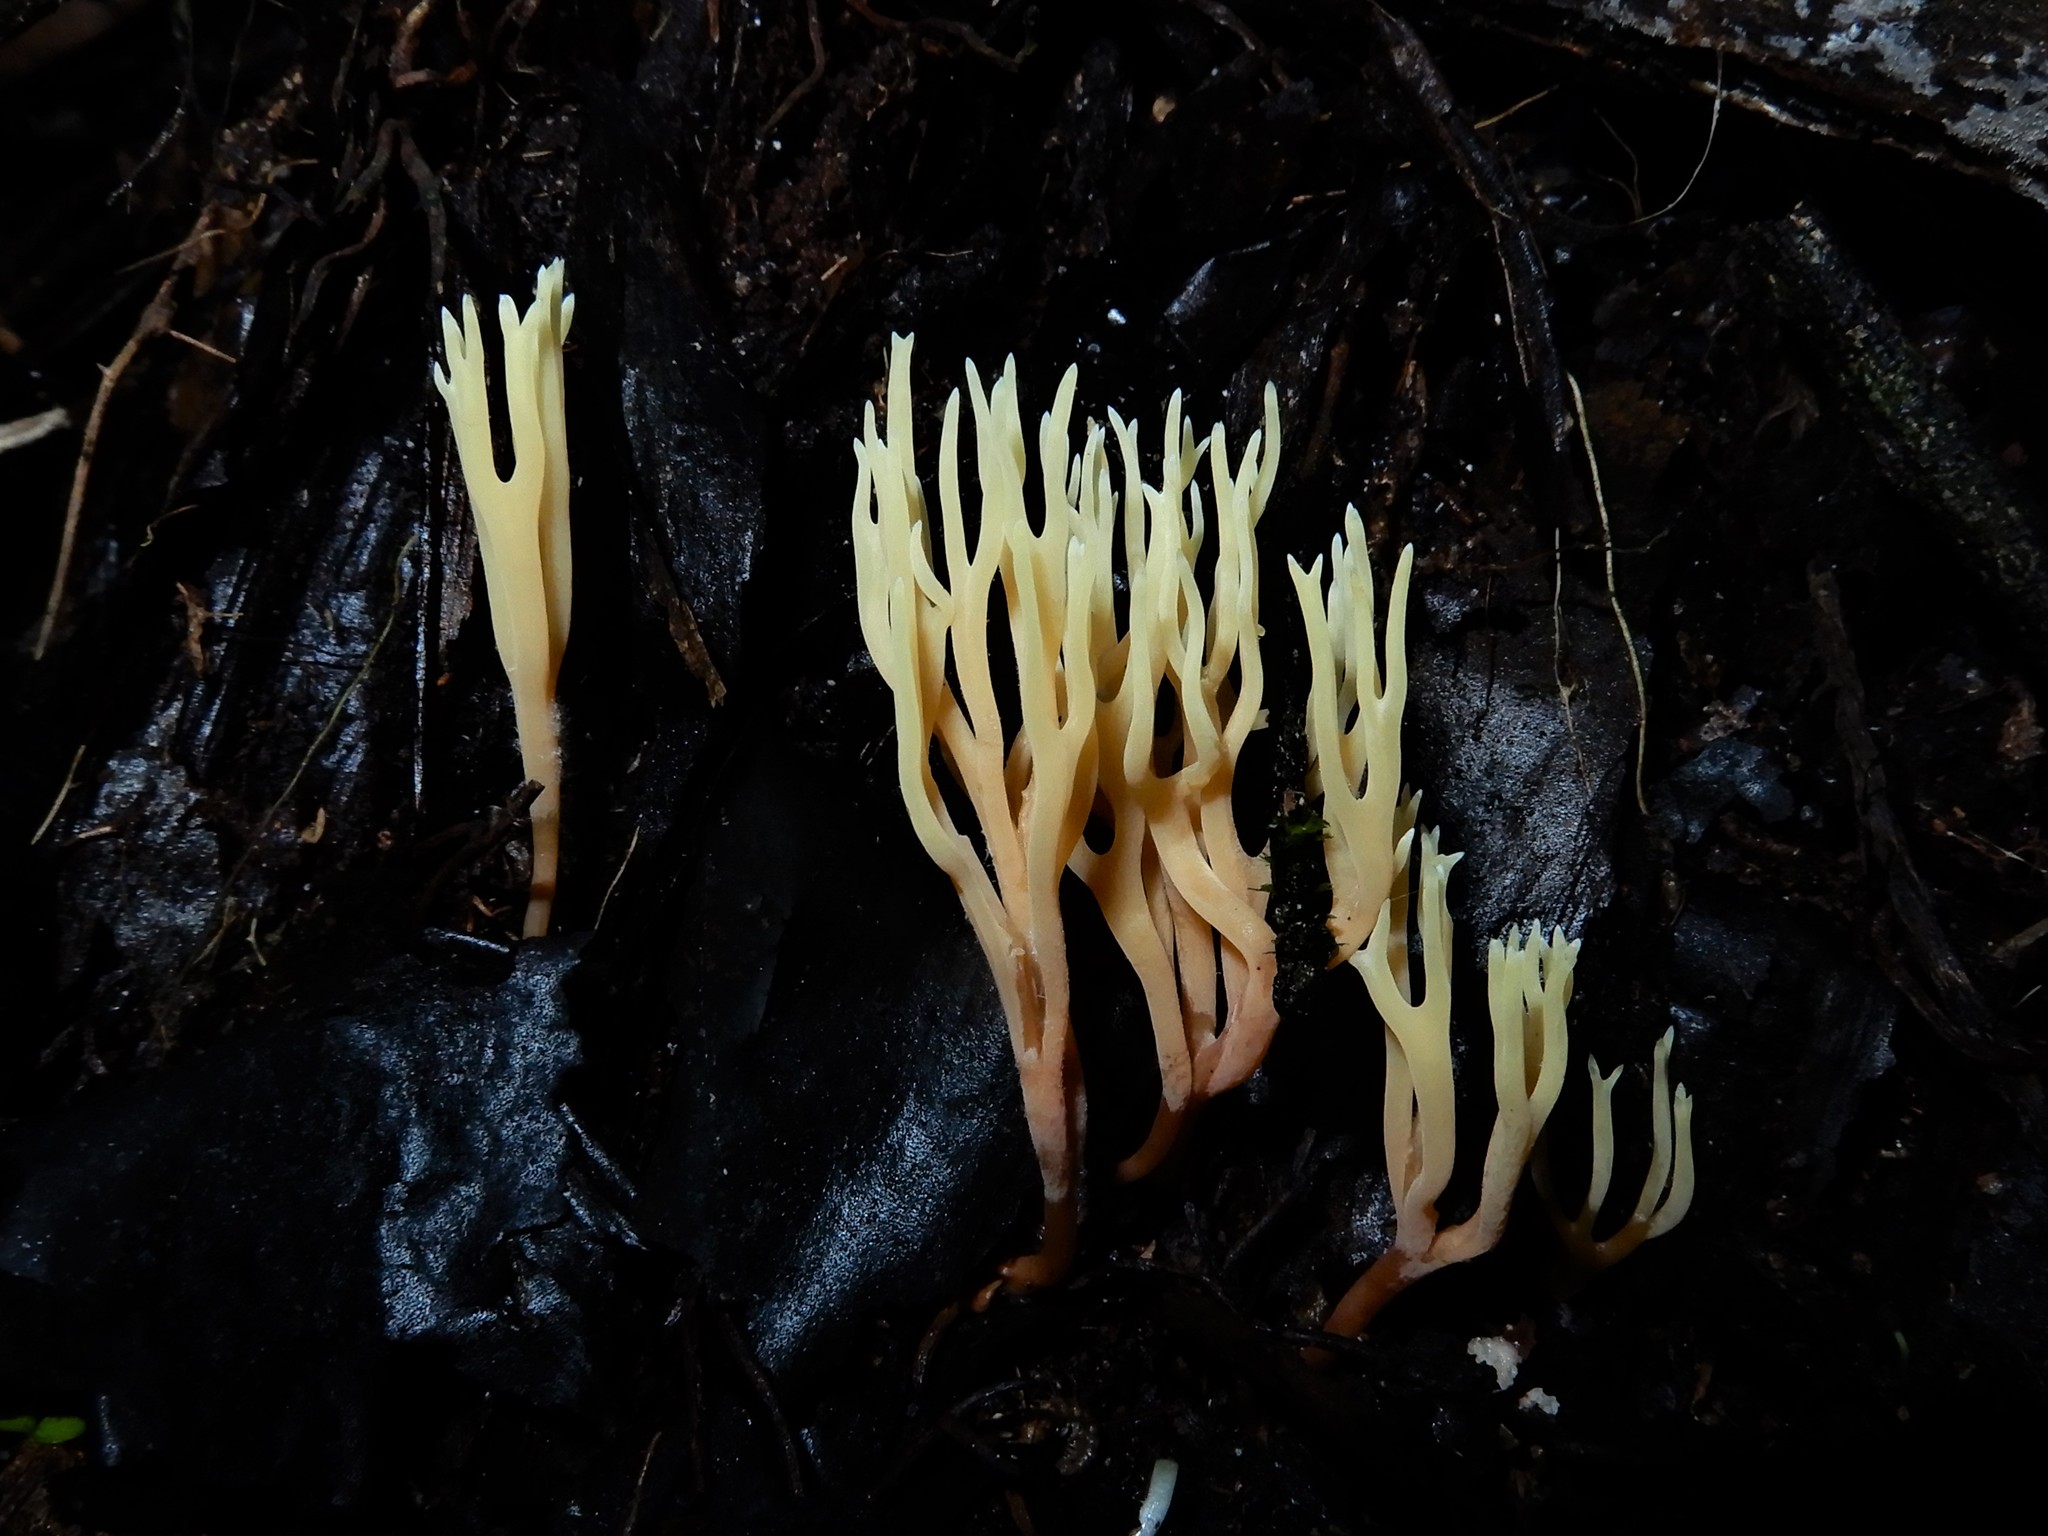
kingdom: Fungi
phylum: Basidiomycota
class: Agaricomycetes
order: Agaricales
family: Clavariaceae
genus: Ramariopsis
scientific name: Ramariopsis bicolor
